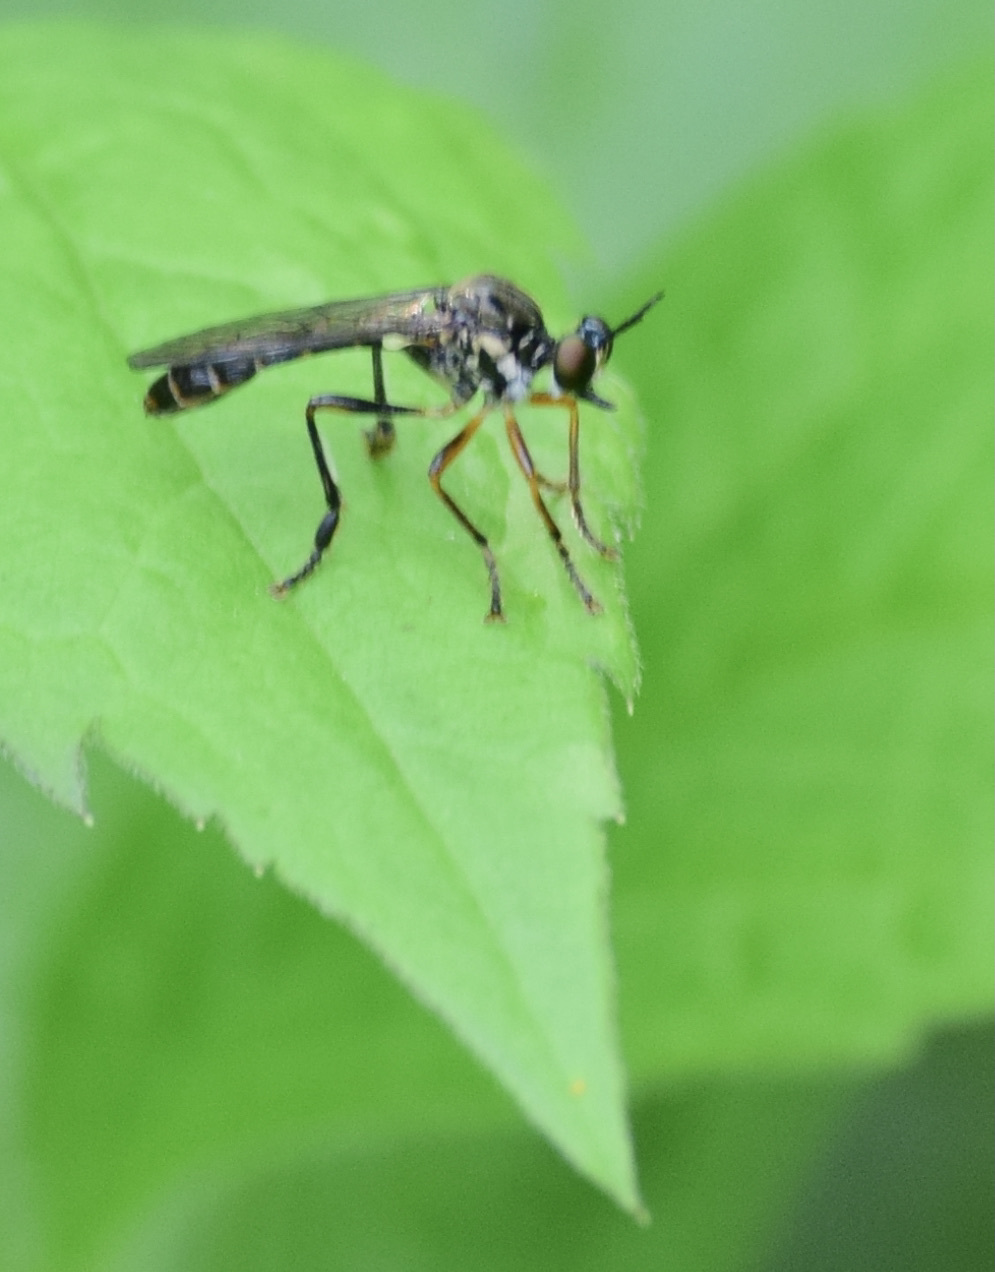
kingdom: Animalia
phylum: Arthropoda
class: Insecta
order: Diptera
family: Asilidae
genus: Dioctria
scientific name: Dioctria hyalipennis
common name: Stripe-legged robberfly
